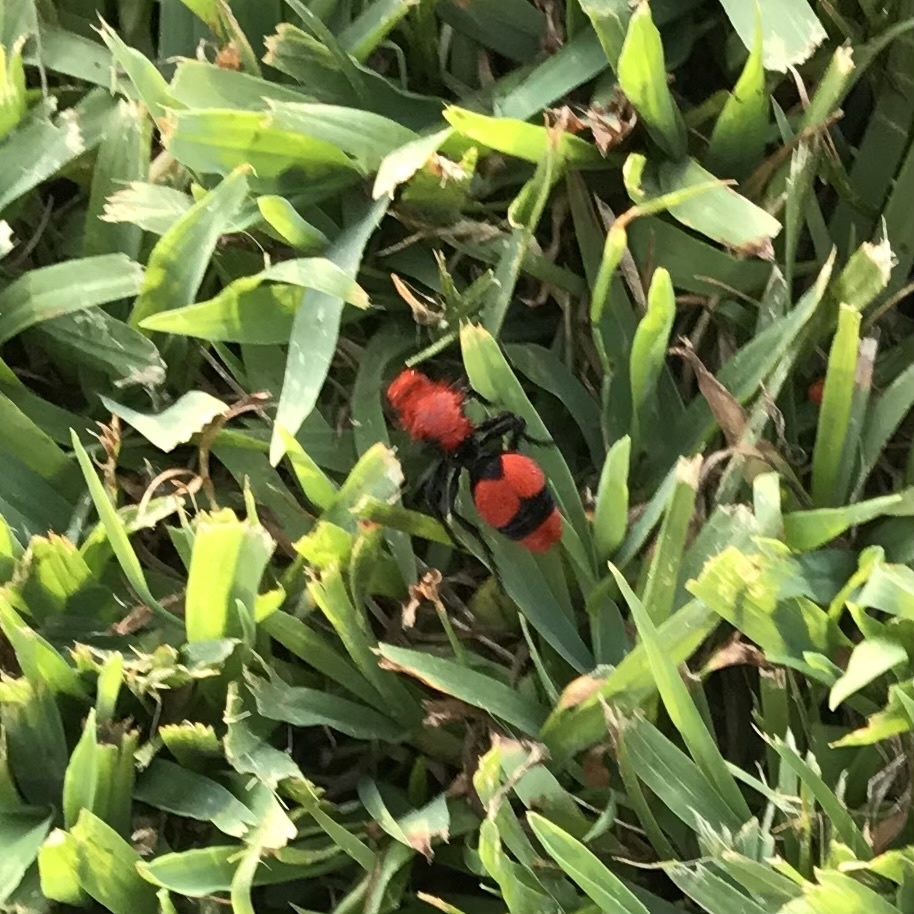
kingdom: Animalia
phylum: Arthropoda
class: Insecta
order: Hymenoptera
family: Mutillidae
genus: Dasymutilla
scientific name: Dasymutilla occidentalis
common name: Common eastern velvet ant
